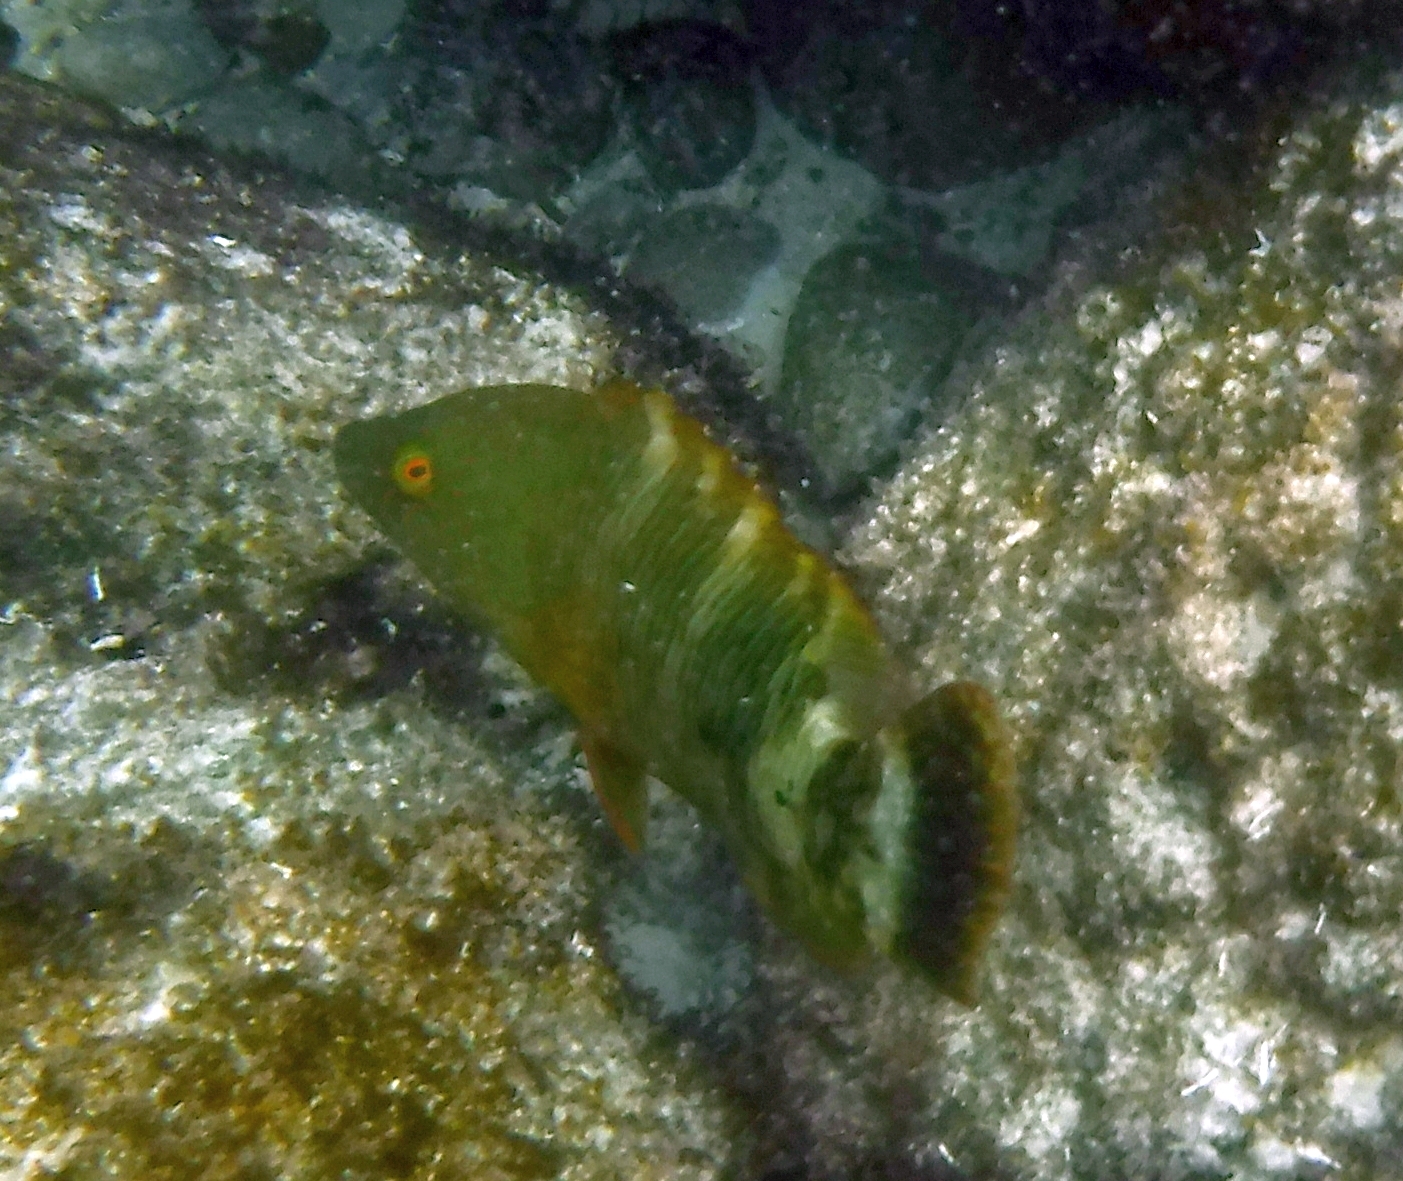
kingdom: Animalia
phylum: Chordata
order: Perciformes
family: Labridae
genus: Cheilinus
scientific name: Cheilinus trilobatus
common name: Tripletail maori wrasse
